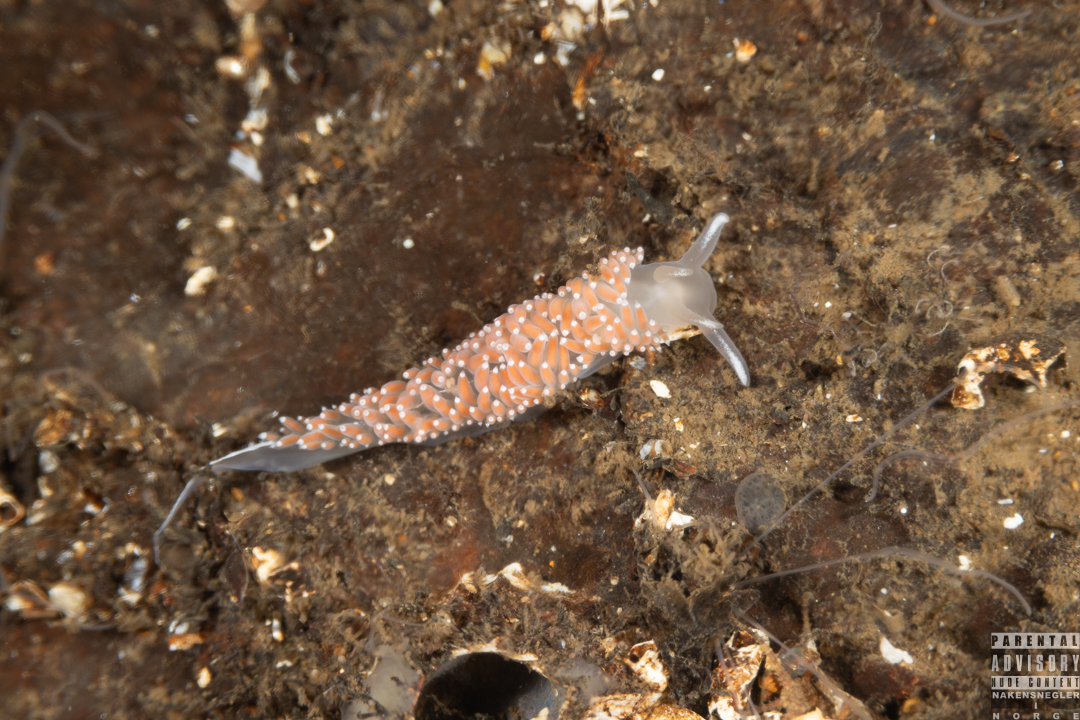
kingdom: Animalia
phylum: Mollusca
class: Gastropoda
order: Nudibranchia
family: Coryphellidae
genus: Coryphella
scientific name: Coryphella verrucosa
